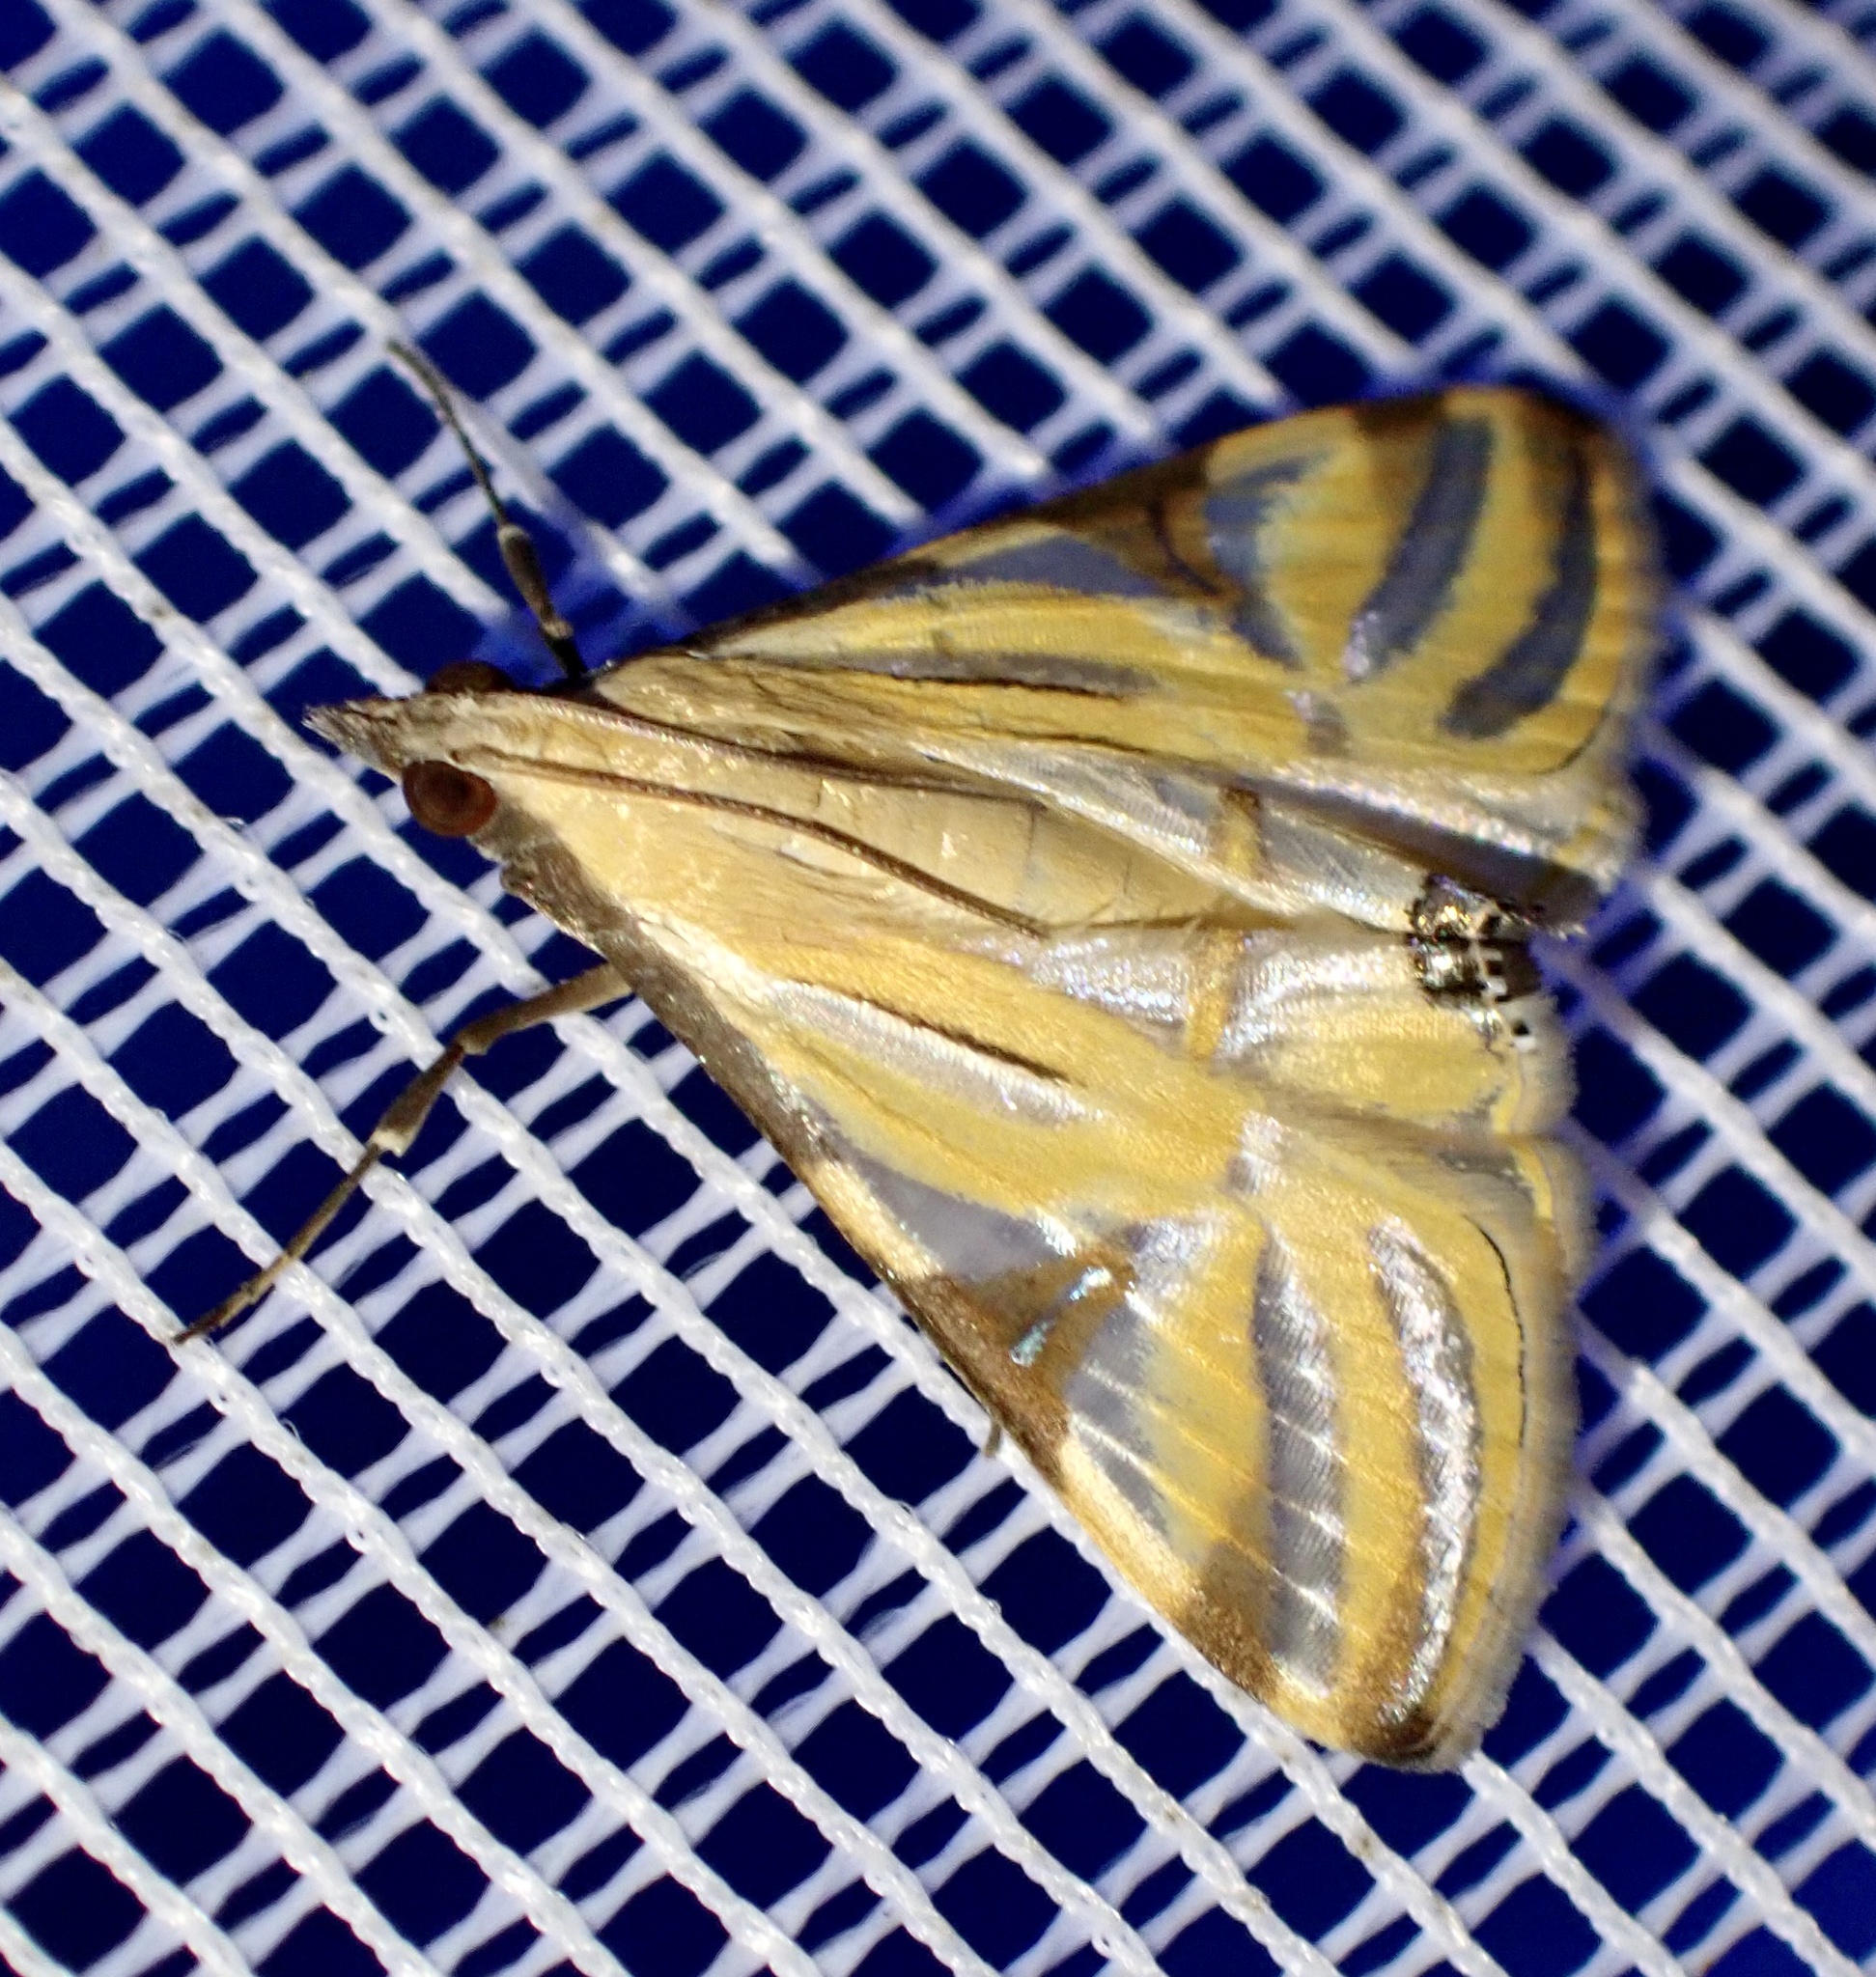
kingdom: Animalia
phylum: Arthropoda
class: Insecta
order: Lepidoptera
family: Crambidae
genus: Talanga
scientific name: Talanga sexpunctalis
